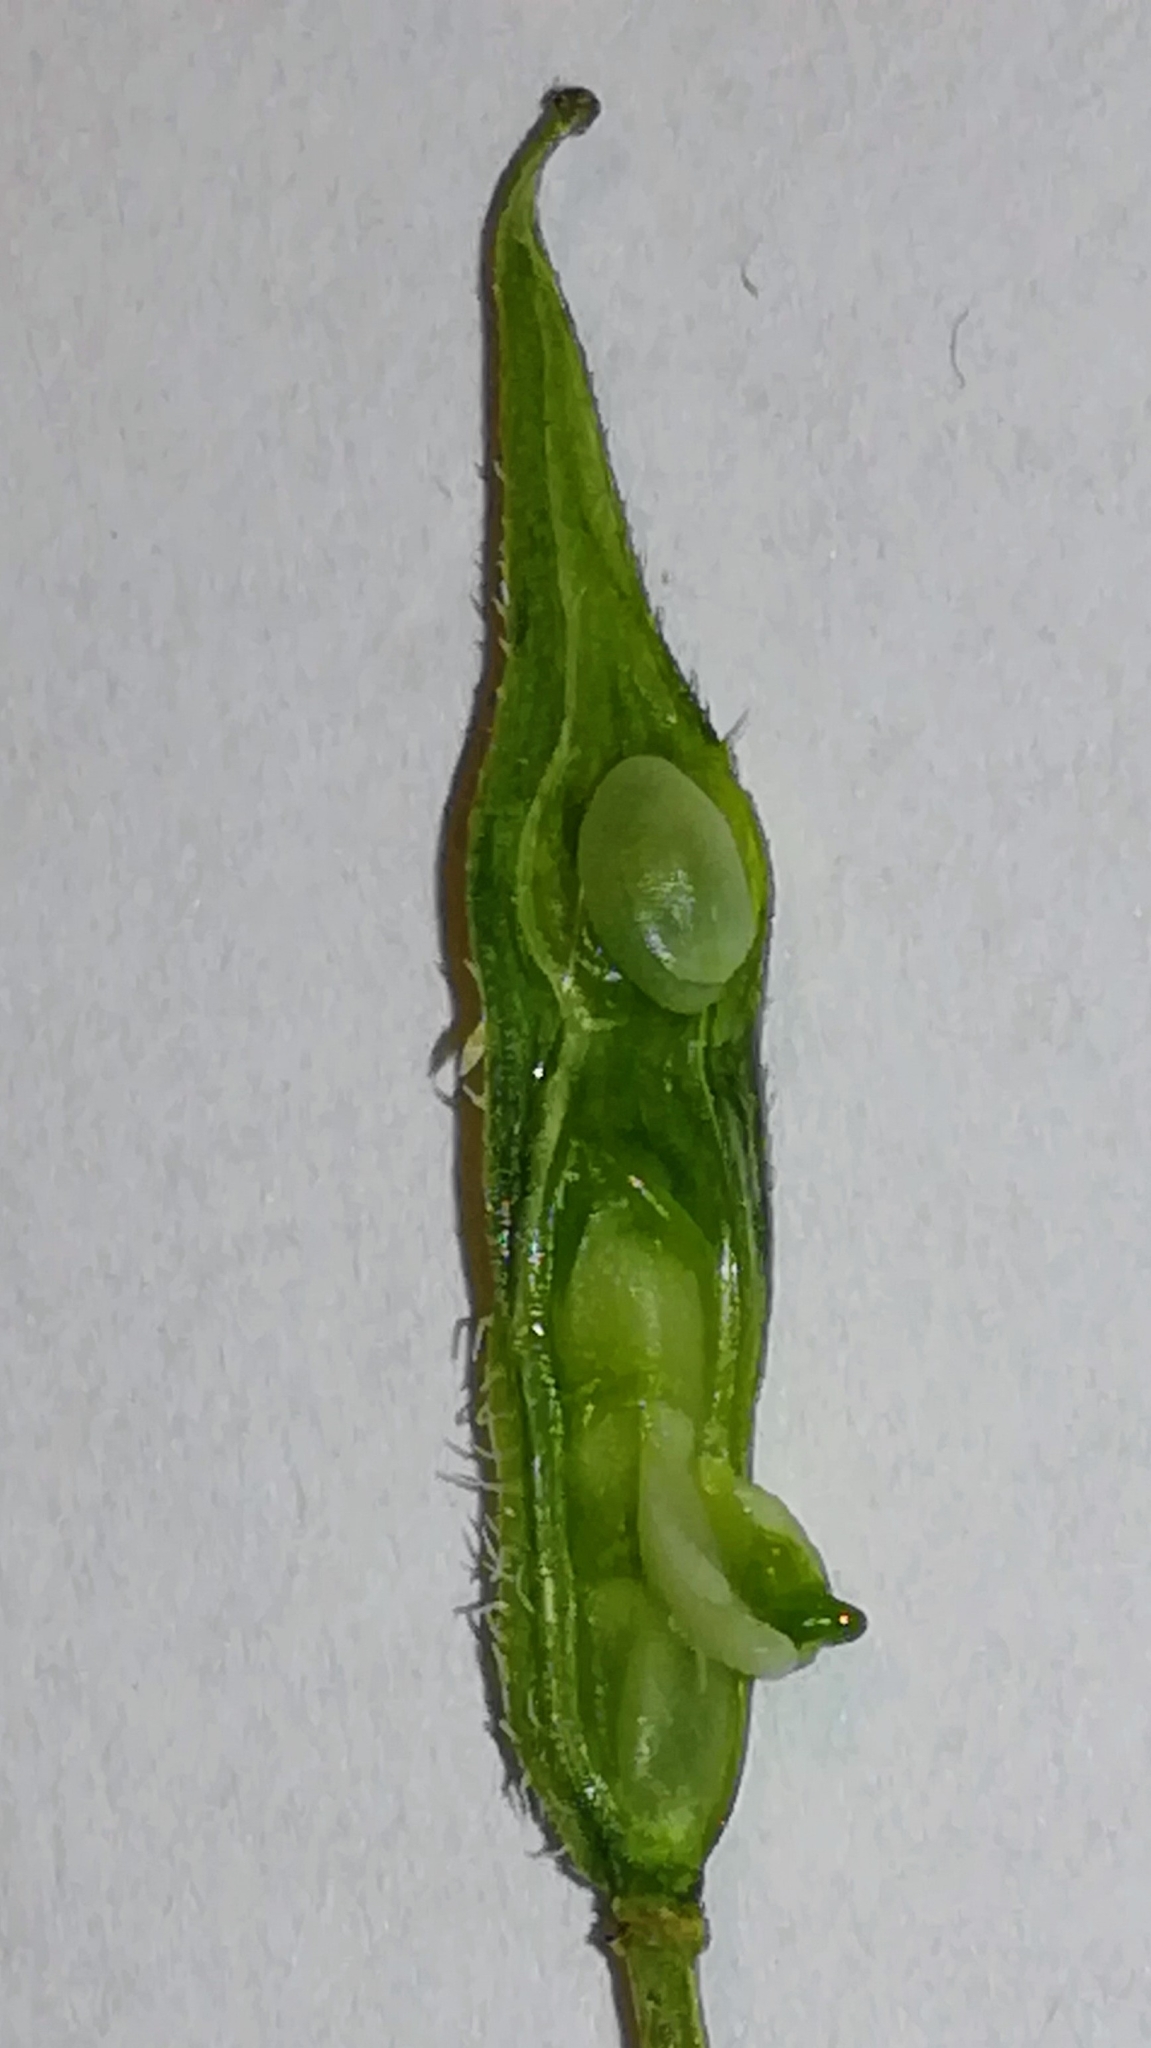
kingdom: Plantae
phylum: Tracheophyta
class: Magnoliopsida
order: Brassicales
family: Brassicaceae
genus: Sinapis
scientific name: Sinapis alba
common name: White mustard
